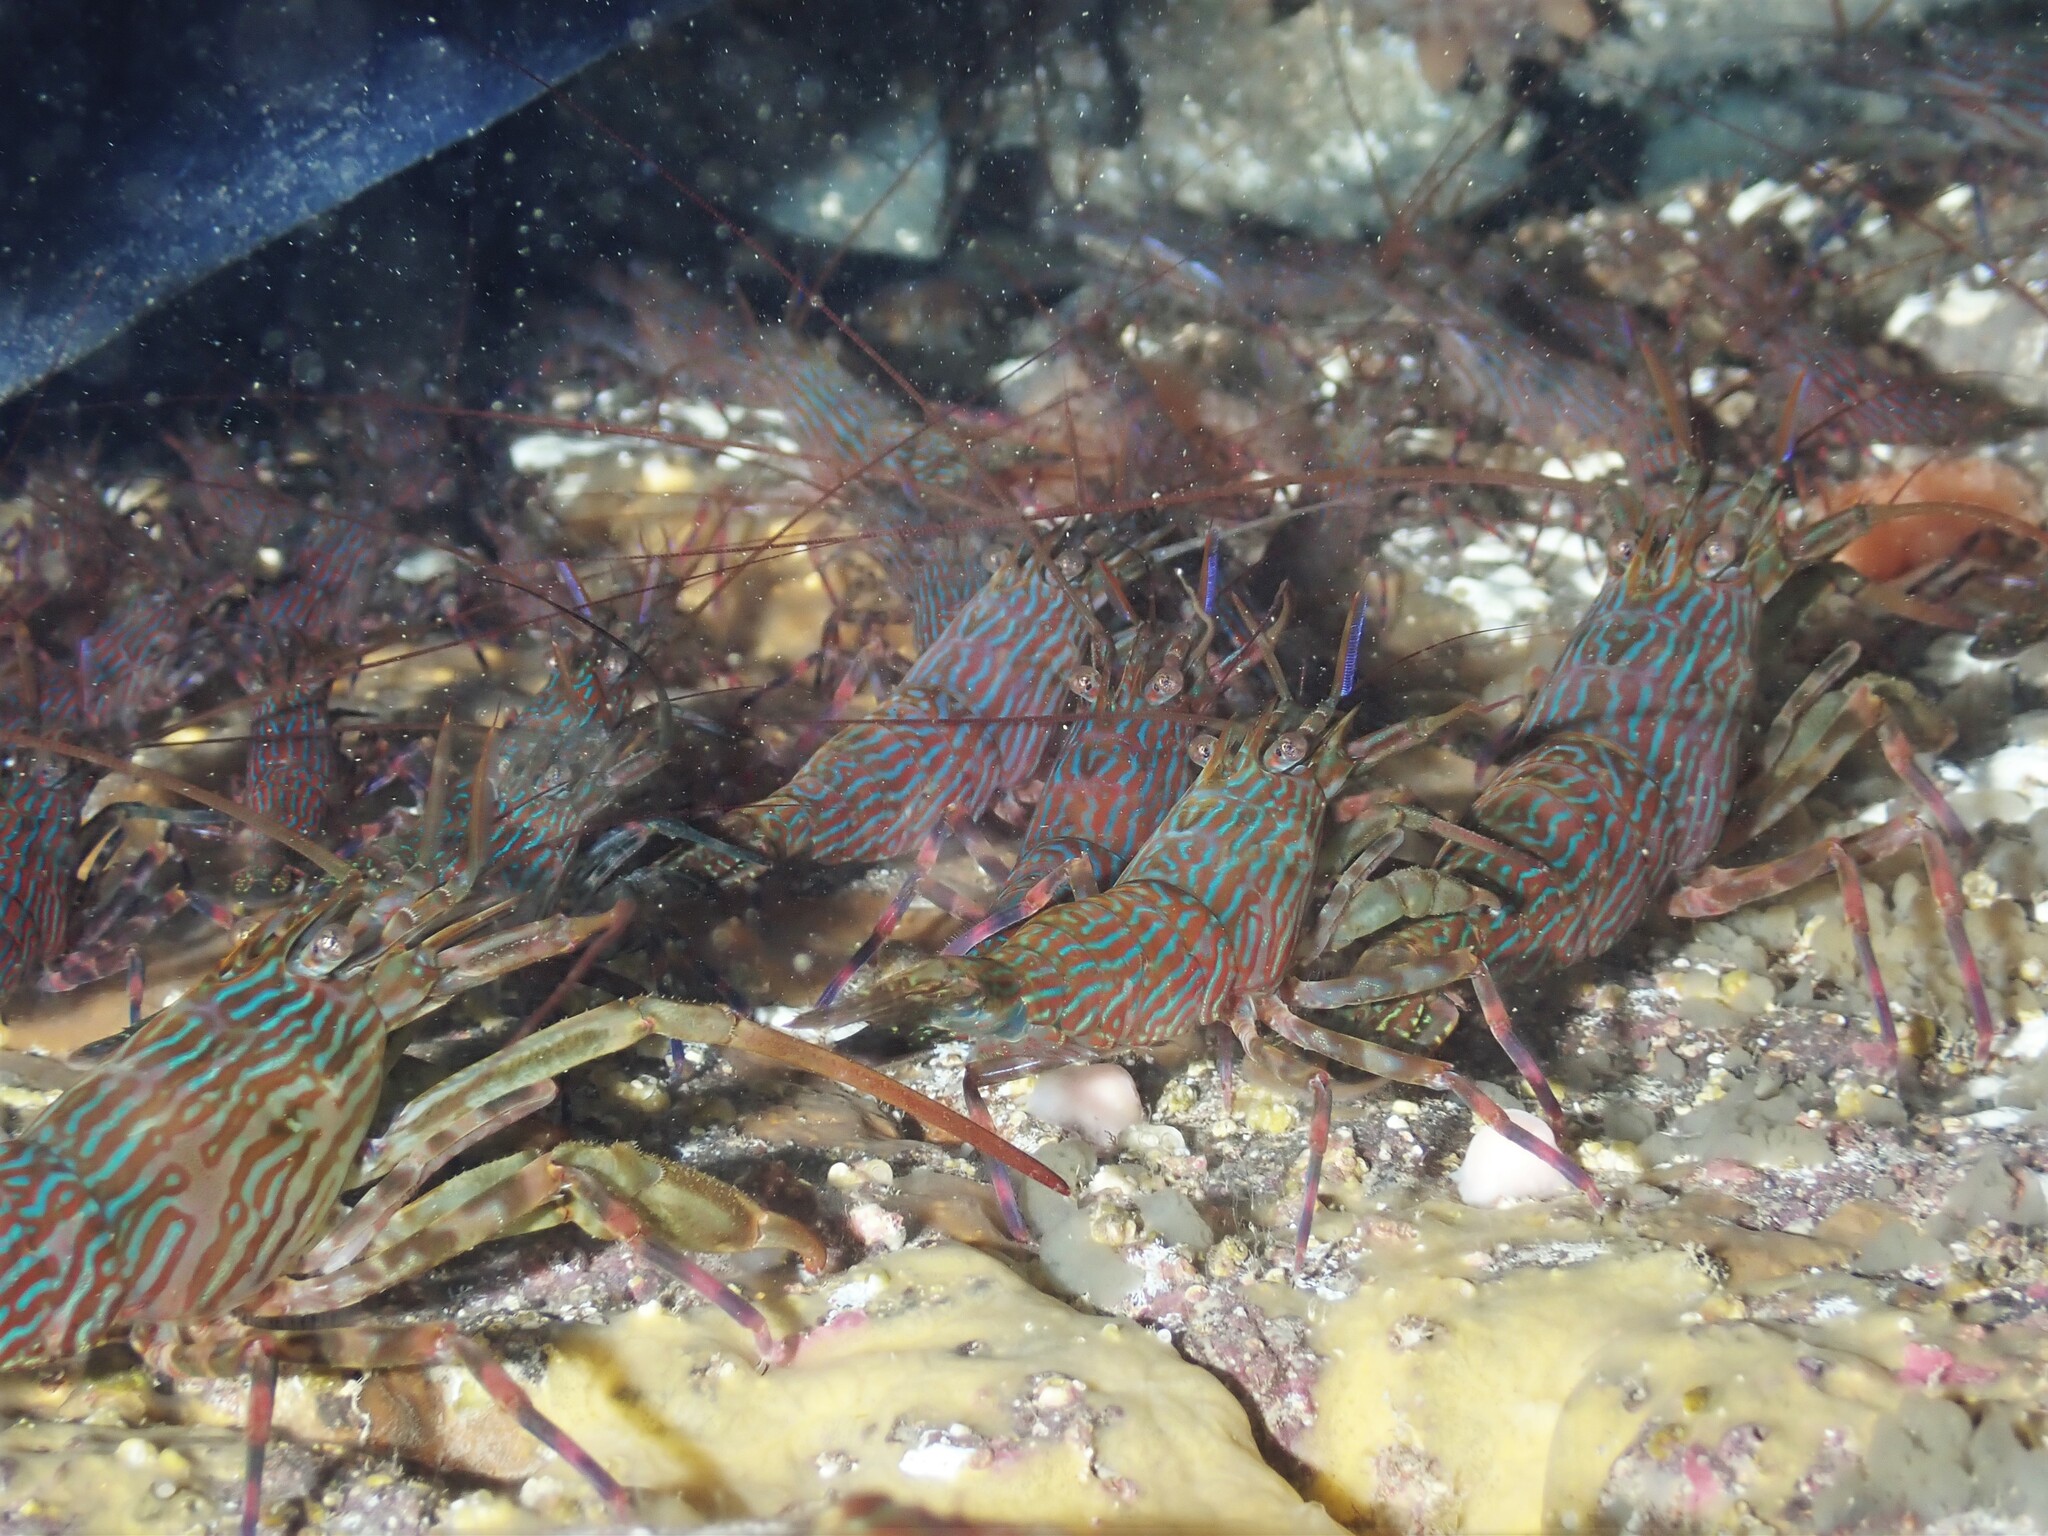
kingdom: Animalia
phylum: Arthropoda
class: Malacostraca
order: Decapoda
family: Hippolytidae
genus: Alope
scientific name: Alope spinifrons
